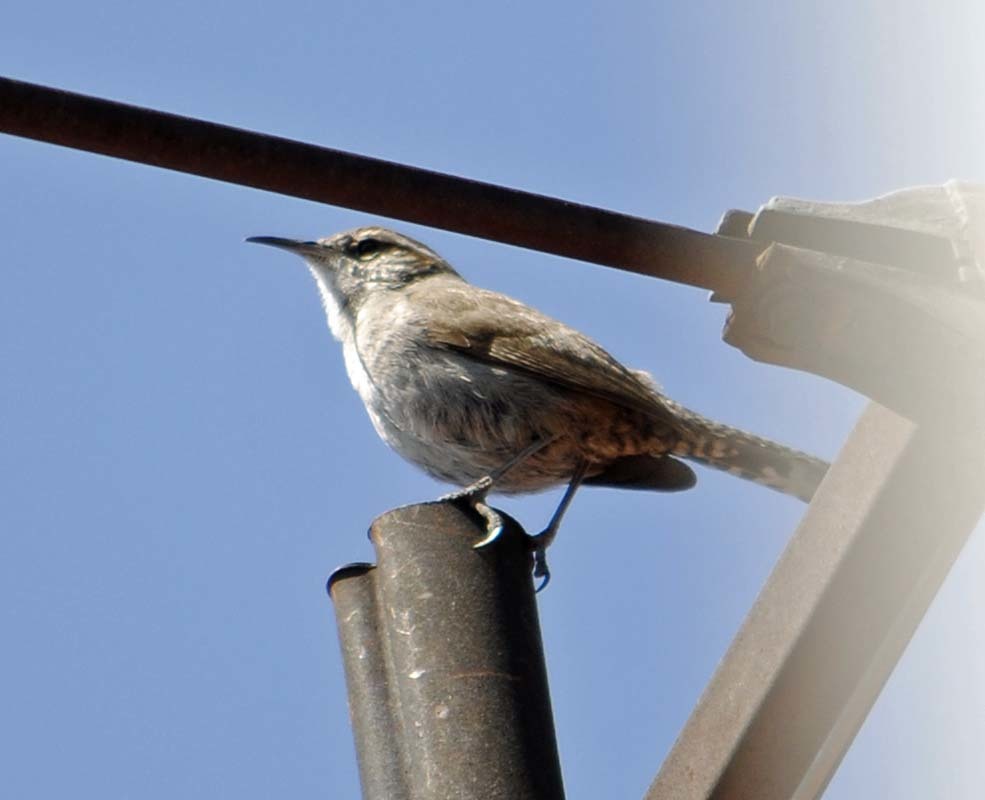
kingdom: Animalia
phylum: Chordata
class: Aves
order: Passeriformes
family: Troglodytidae
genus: Thryomanes
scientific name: Thryomanes bewickii
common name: Bewick's wren
